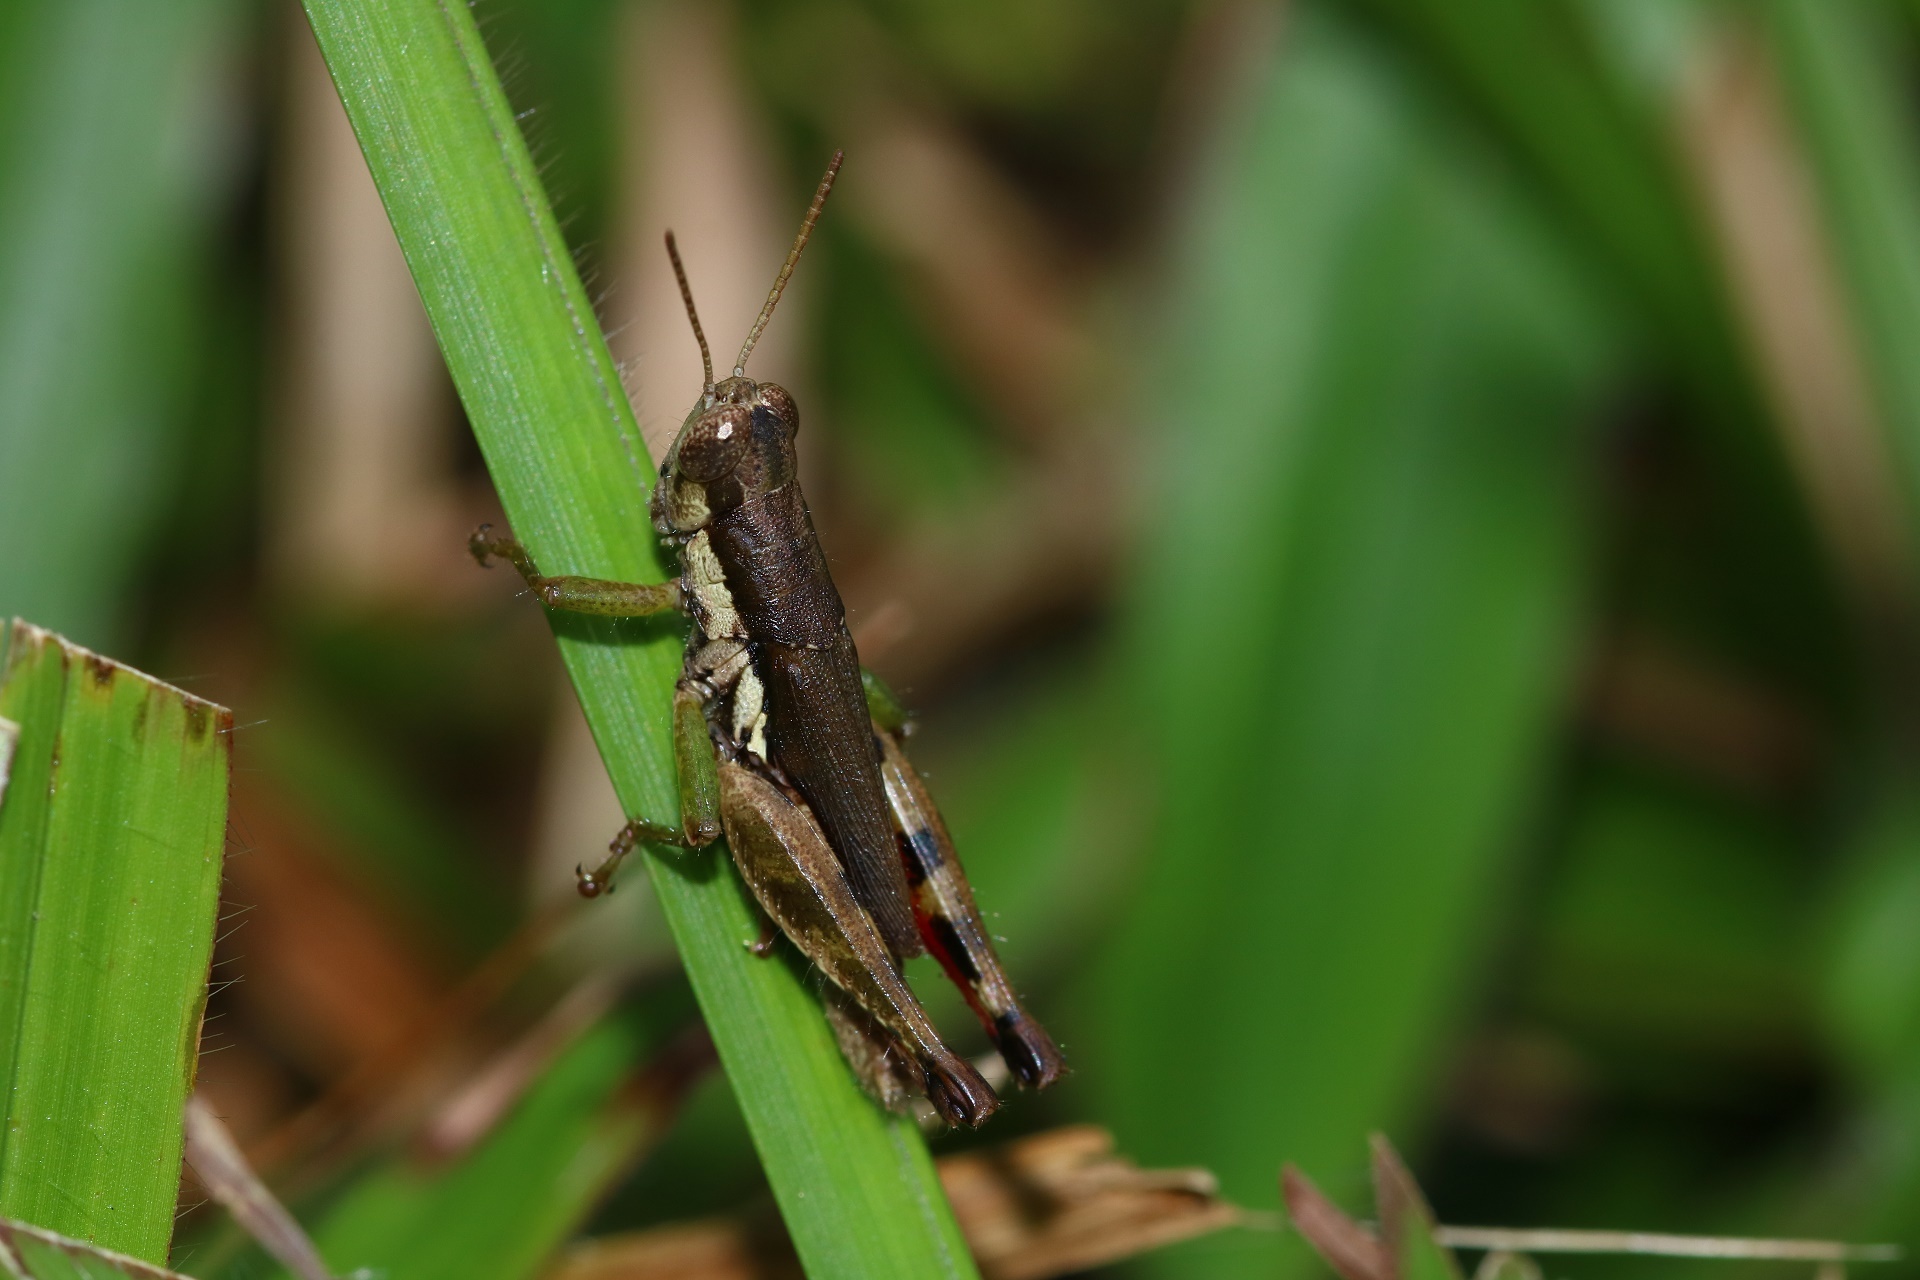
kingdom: Animalia
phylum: Arthropoda
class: Insecta
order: Orthoptera
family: Acrididae
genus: Pseudoxya
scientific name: Pseudoxya diminuta
